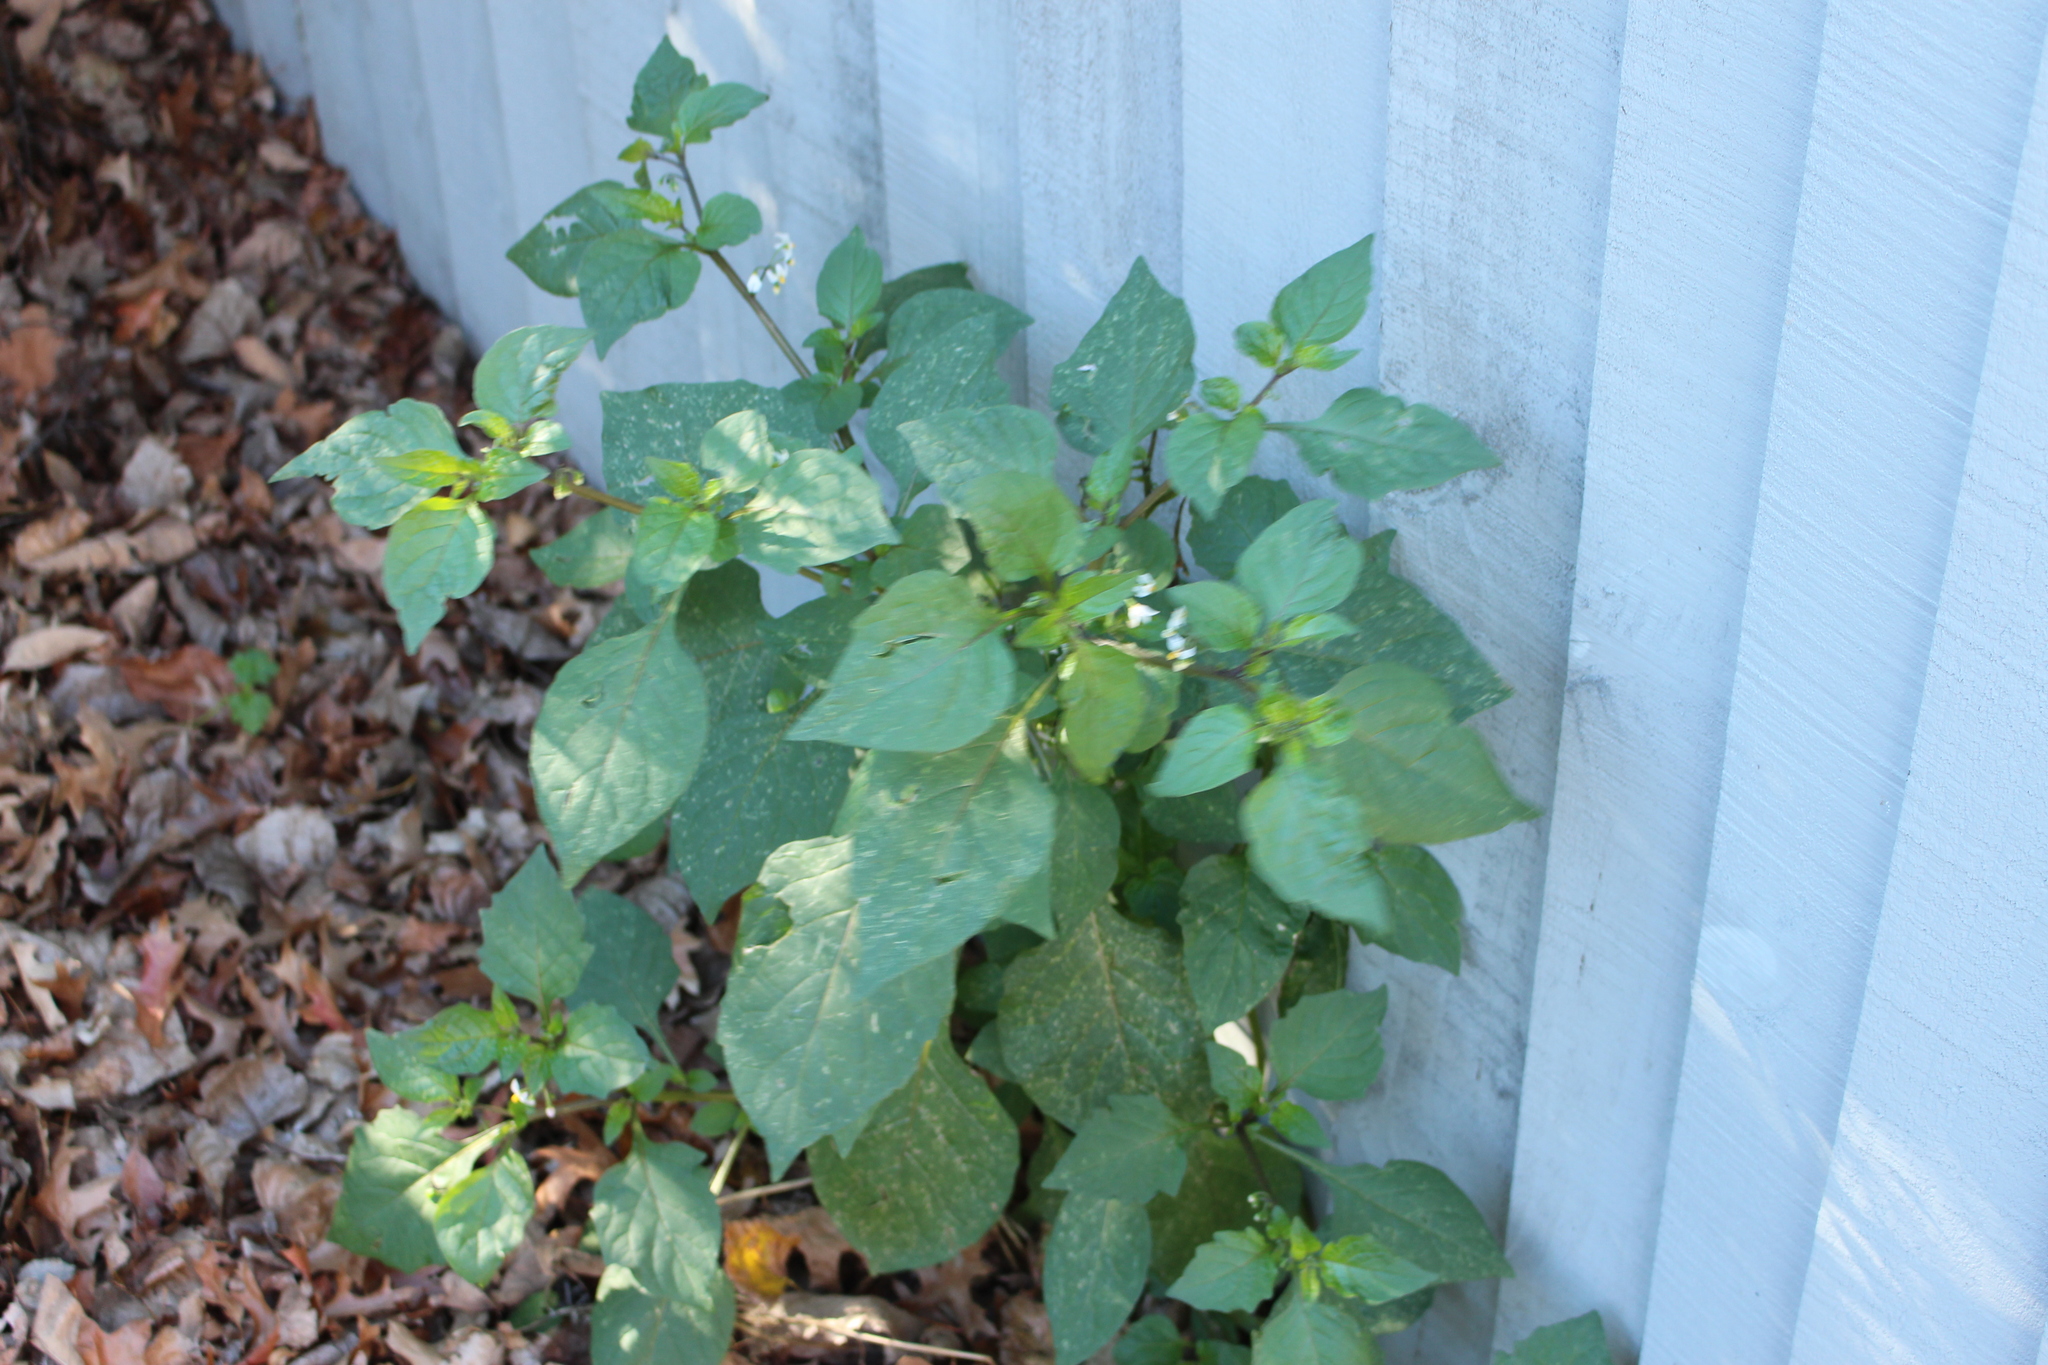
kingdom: Plantae
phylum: Tracheophyta
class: Magnoliopsida
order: Solanales
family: Solanaceae
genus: Solanum
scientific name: Solanum nigrum
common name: Black nightshade
